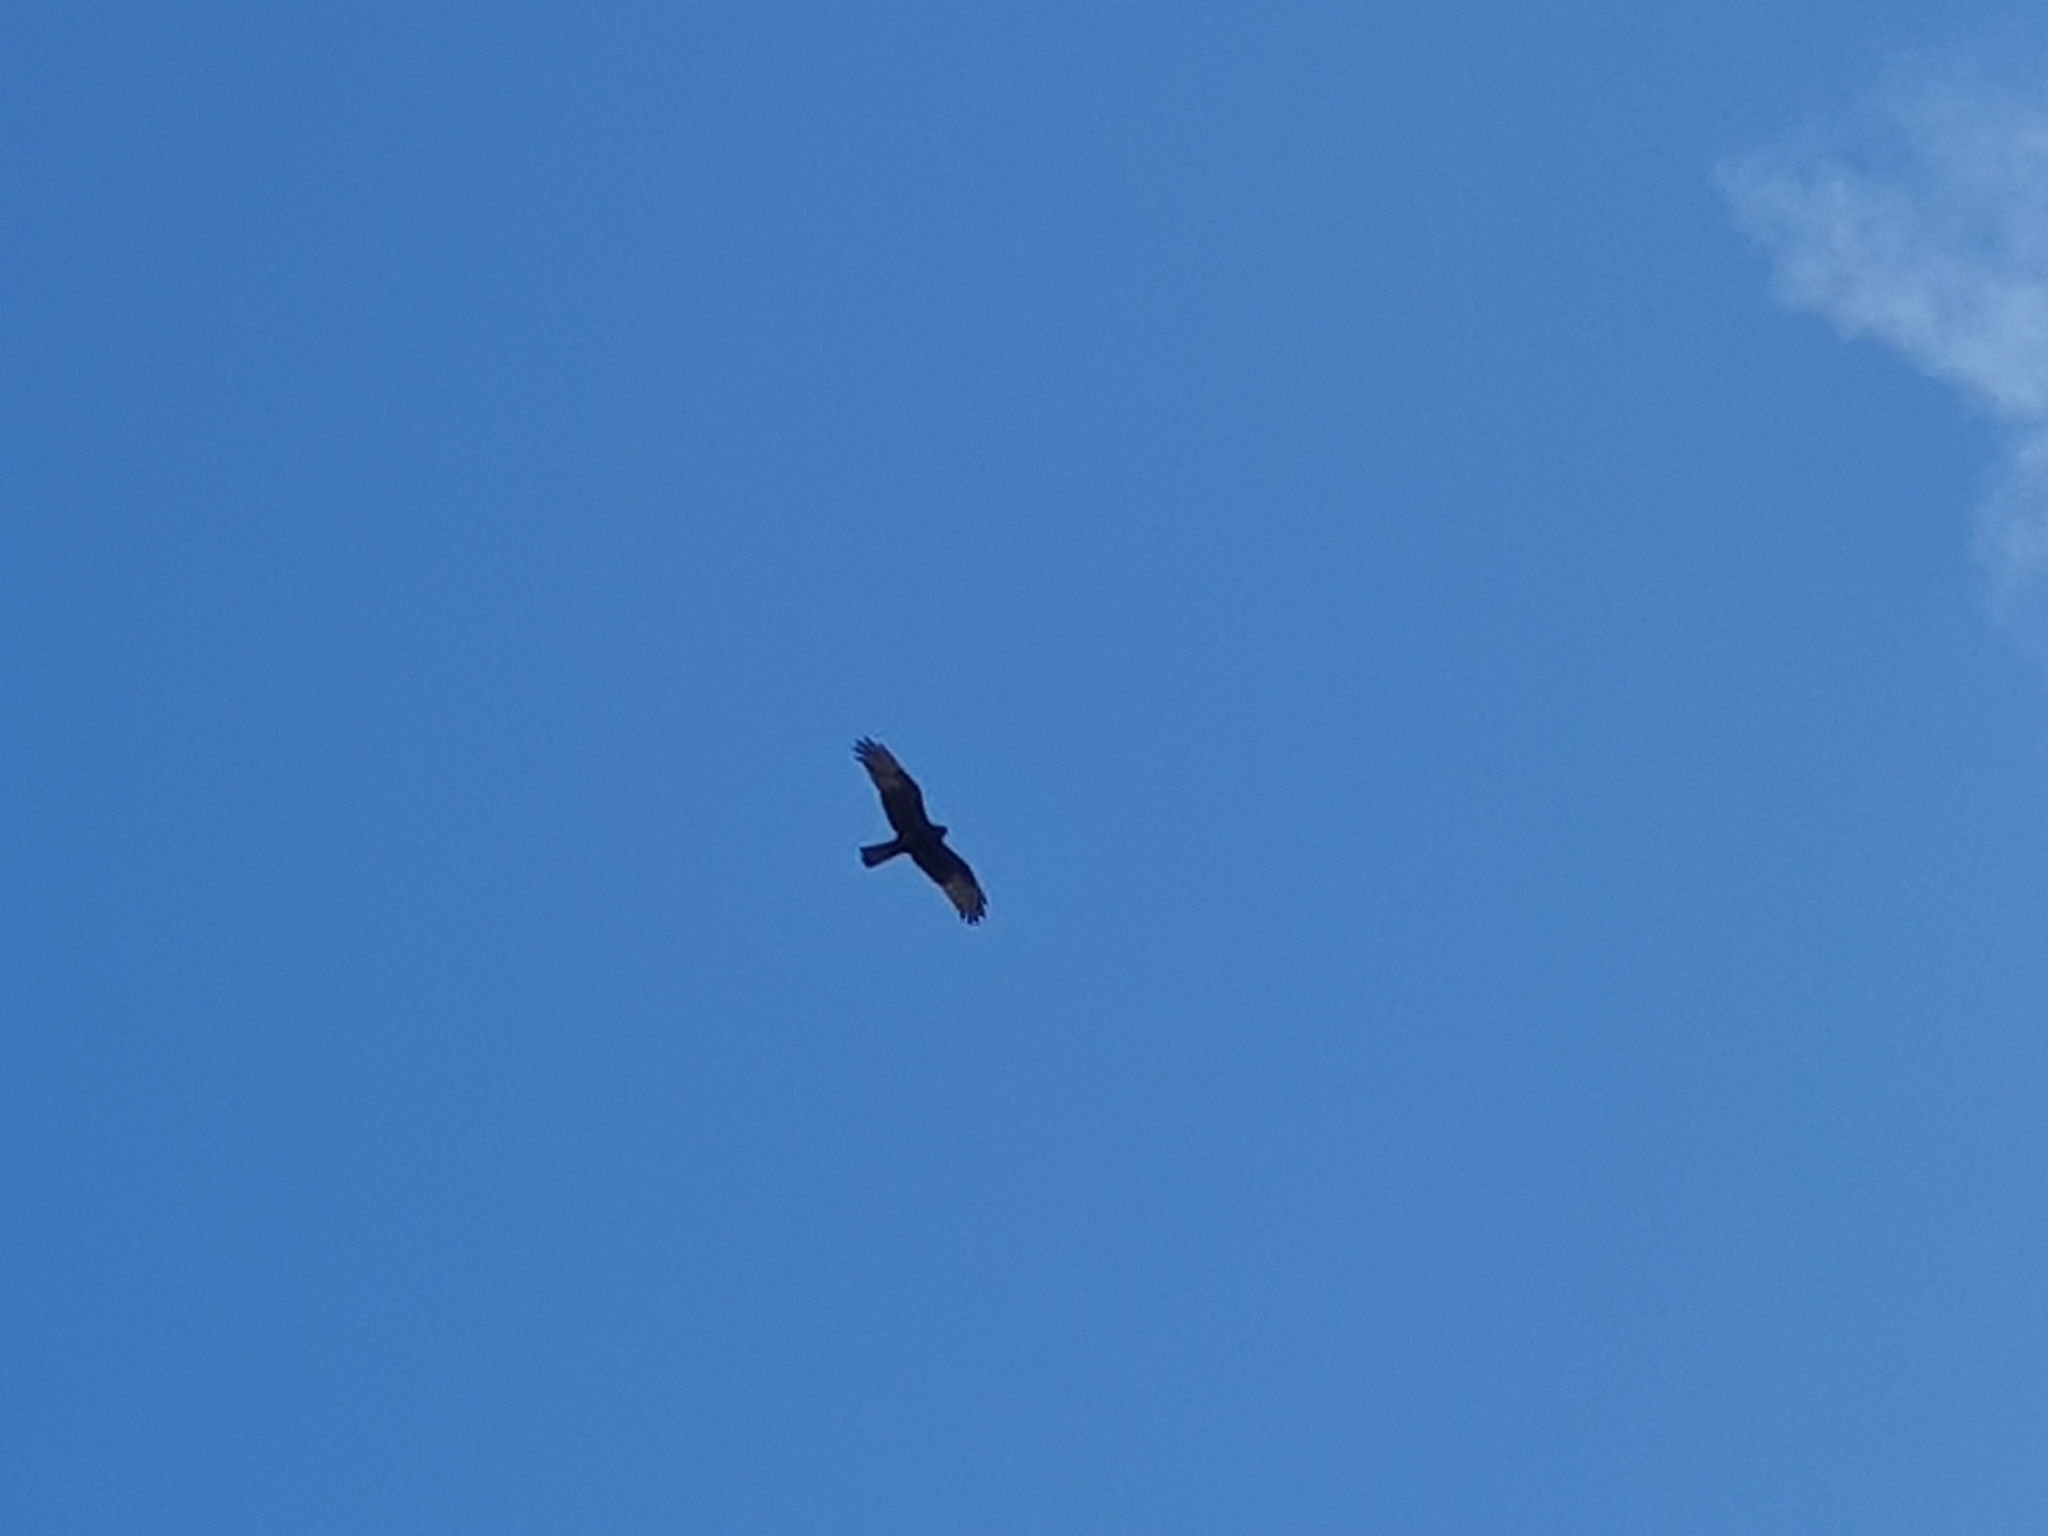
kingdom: Animalia
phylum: Chordata
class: Aves
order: Accipitriformes
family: Accipitridae
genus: Circus
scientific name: Circus approximans
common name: Swamp harrier
